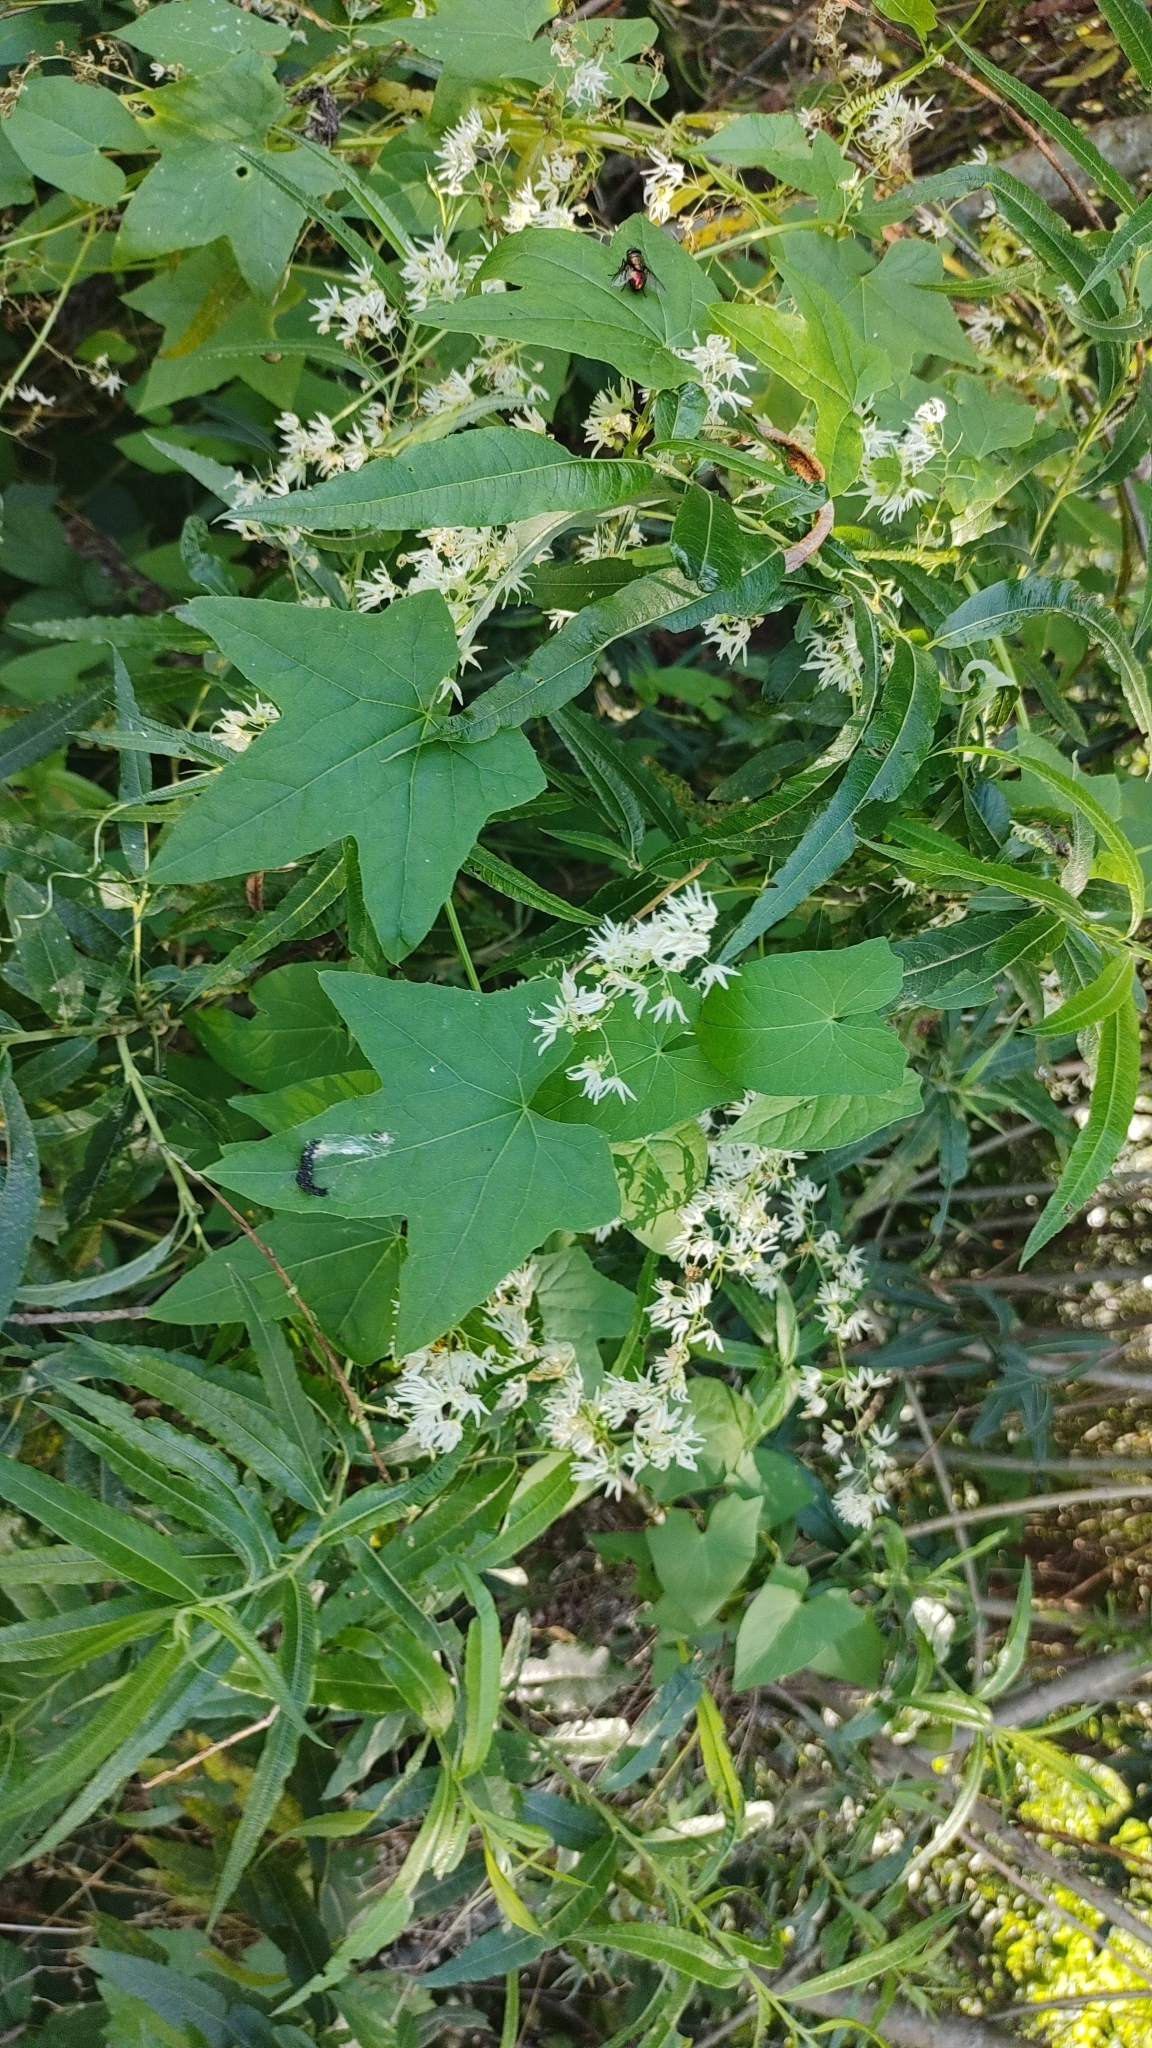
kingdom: Plantae
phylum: Tracheophyta
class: Magnoliopsida
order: Cucurbitales
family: Cucurbitaceae
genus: Echinocystis
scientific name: Echinocystis lobata
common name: Wild cucumber
